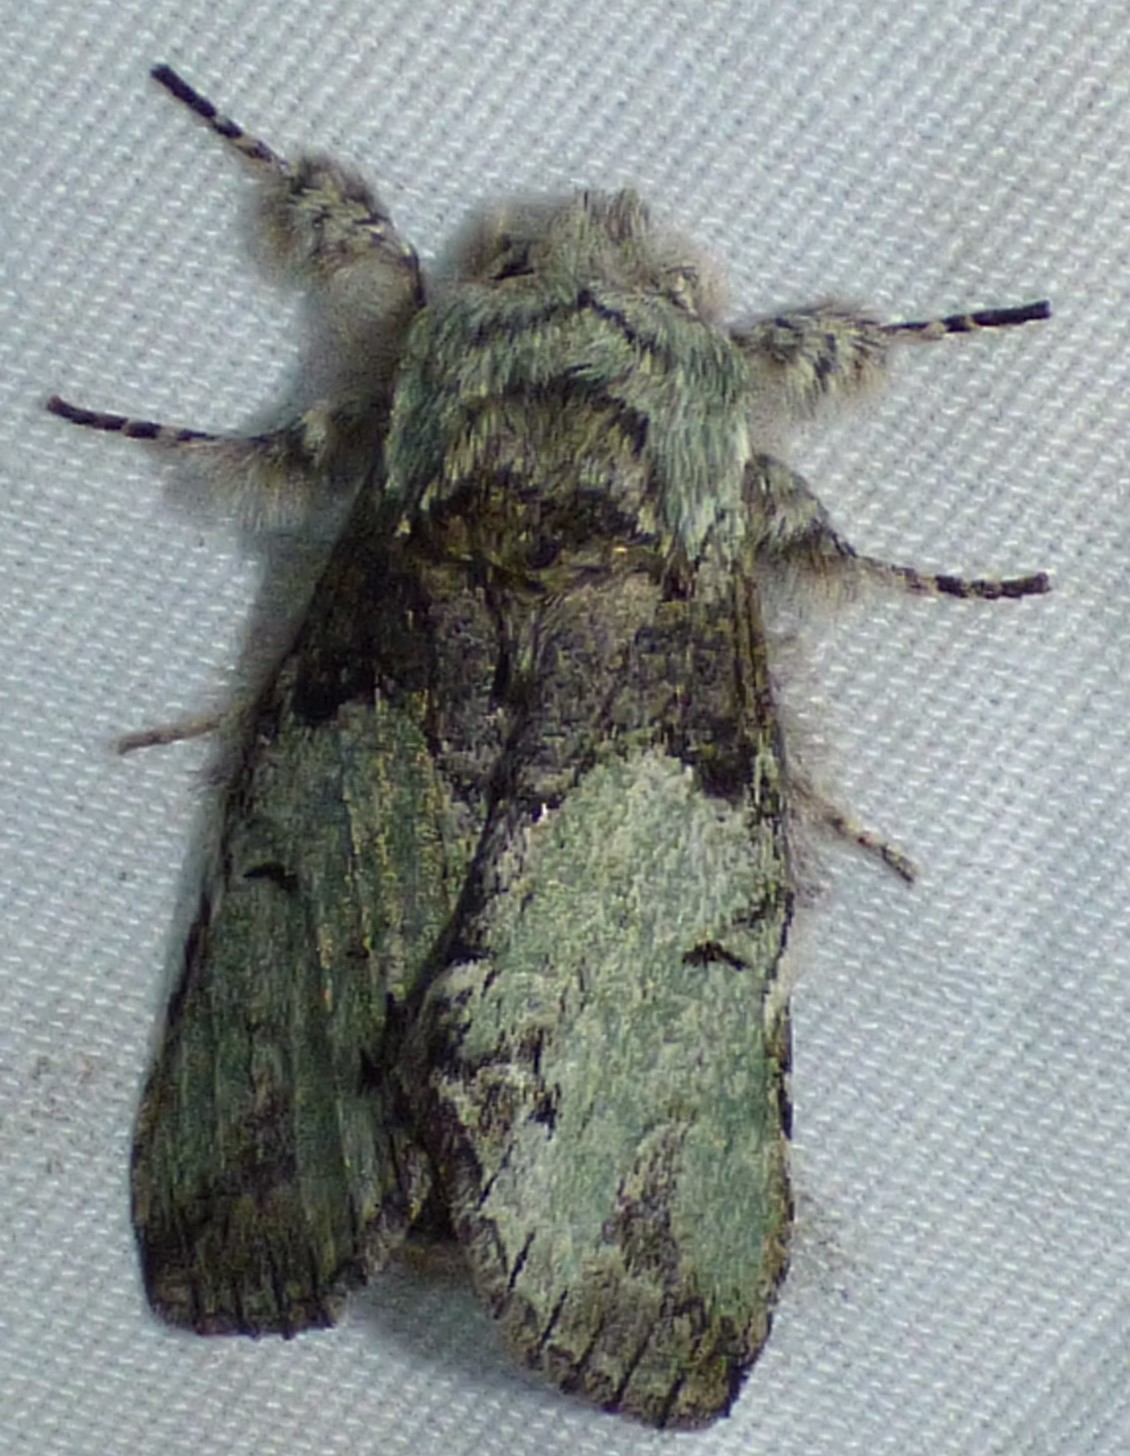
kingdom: Animalia
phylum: Arthropoda
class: Insecta
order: Lepidoptera
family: Notodontidae
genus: Macrurocampa
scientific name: Macrurocampa marthesia
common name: Mottled prominent
